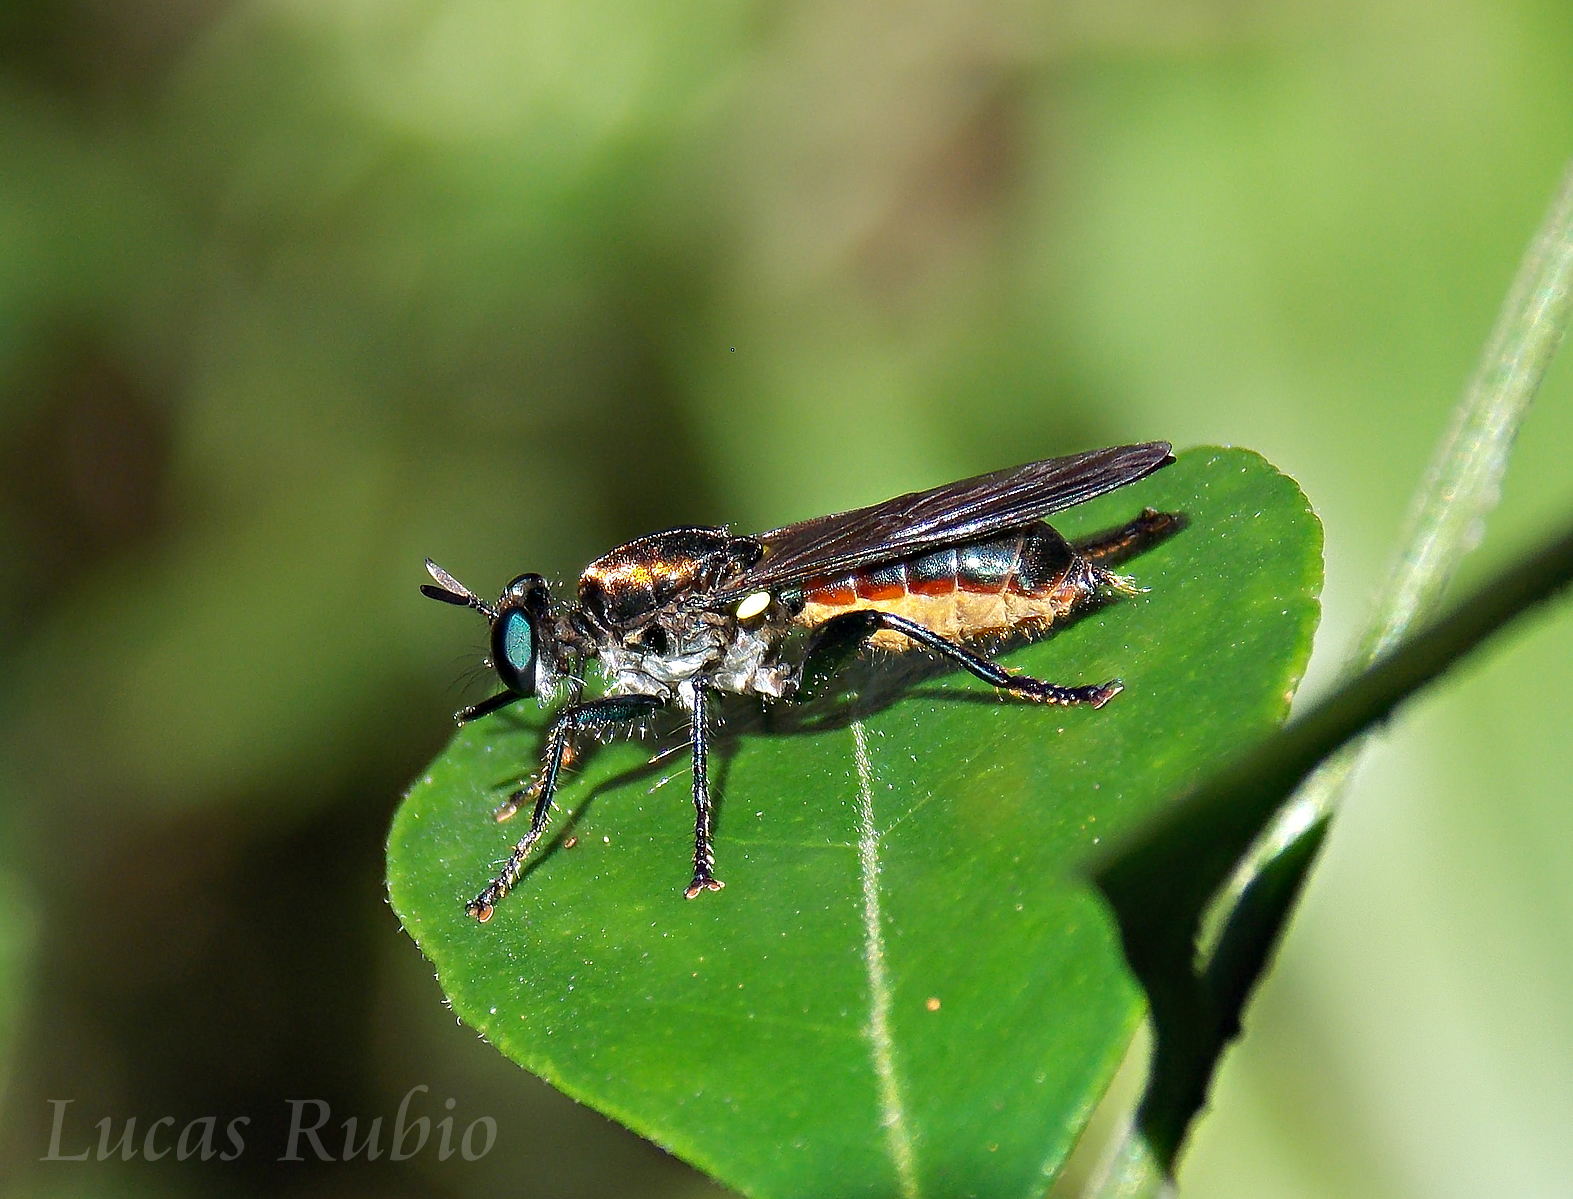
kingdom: Animalia
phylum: Arthropoda
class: Insecta
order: Diptera
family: Asilidae
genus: Lampria
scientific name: Lampria
